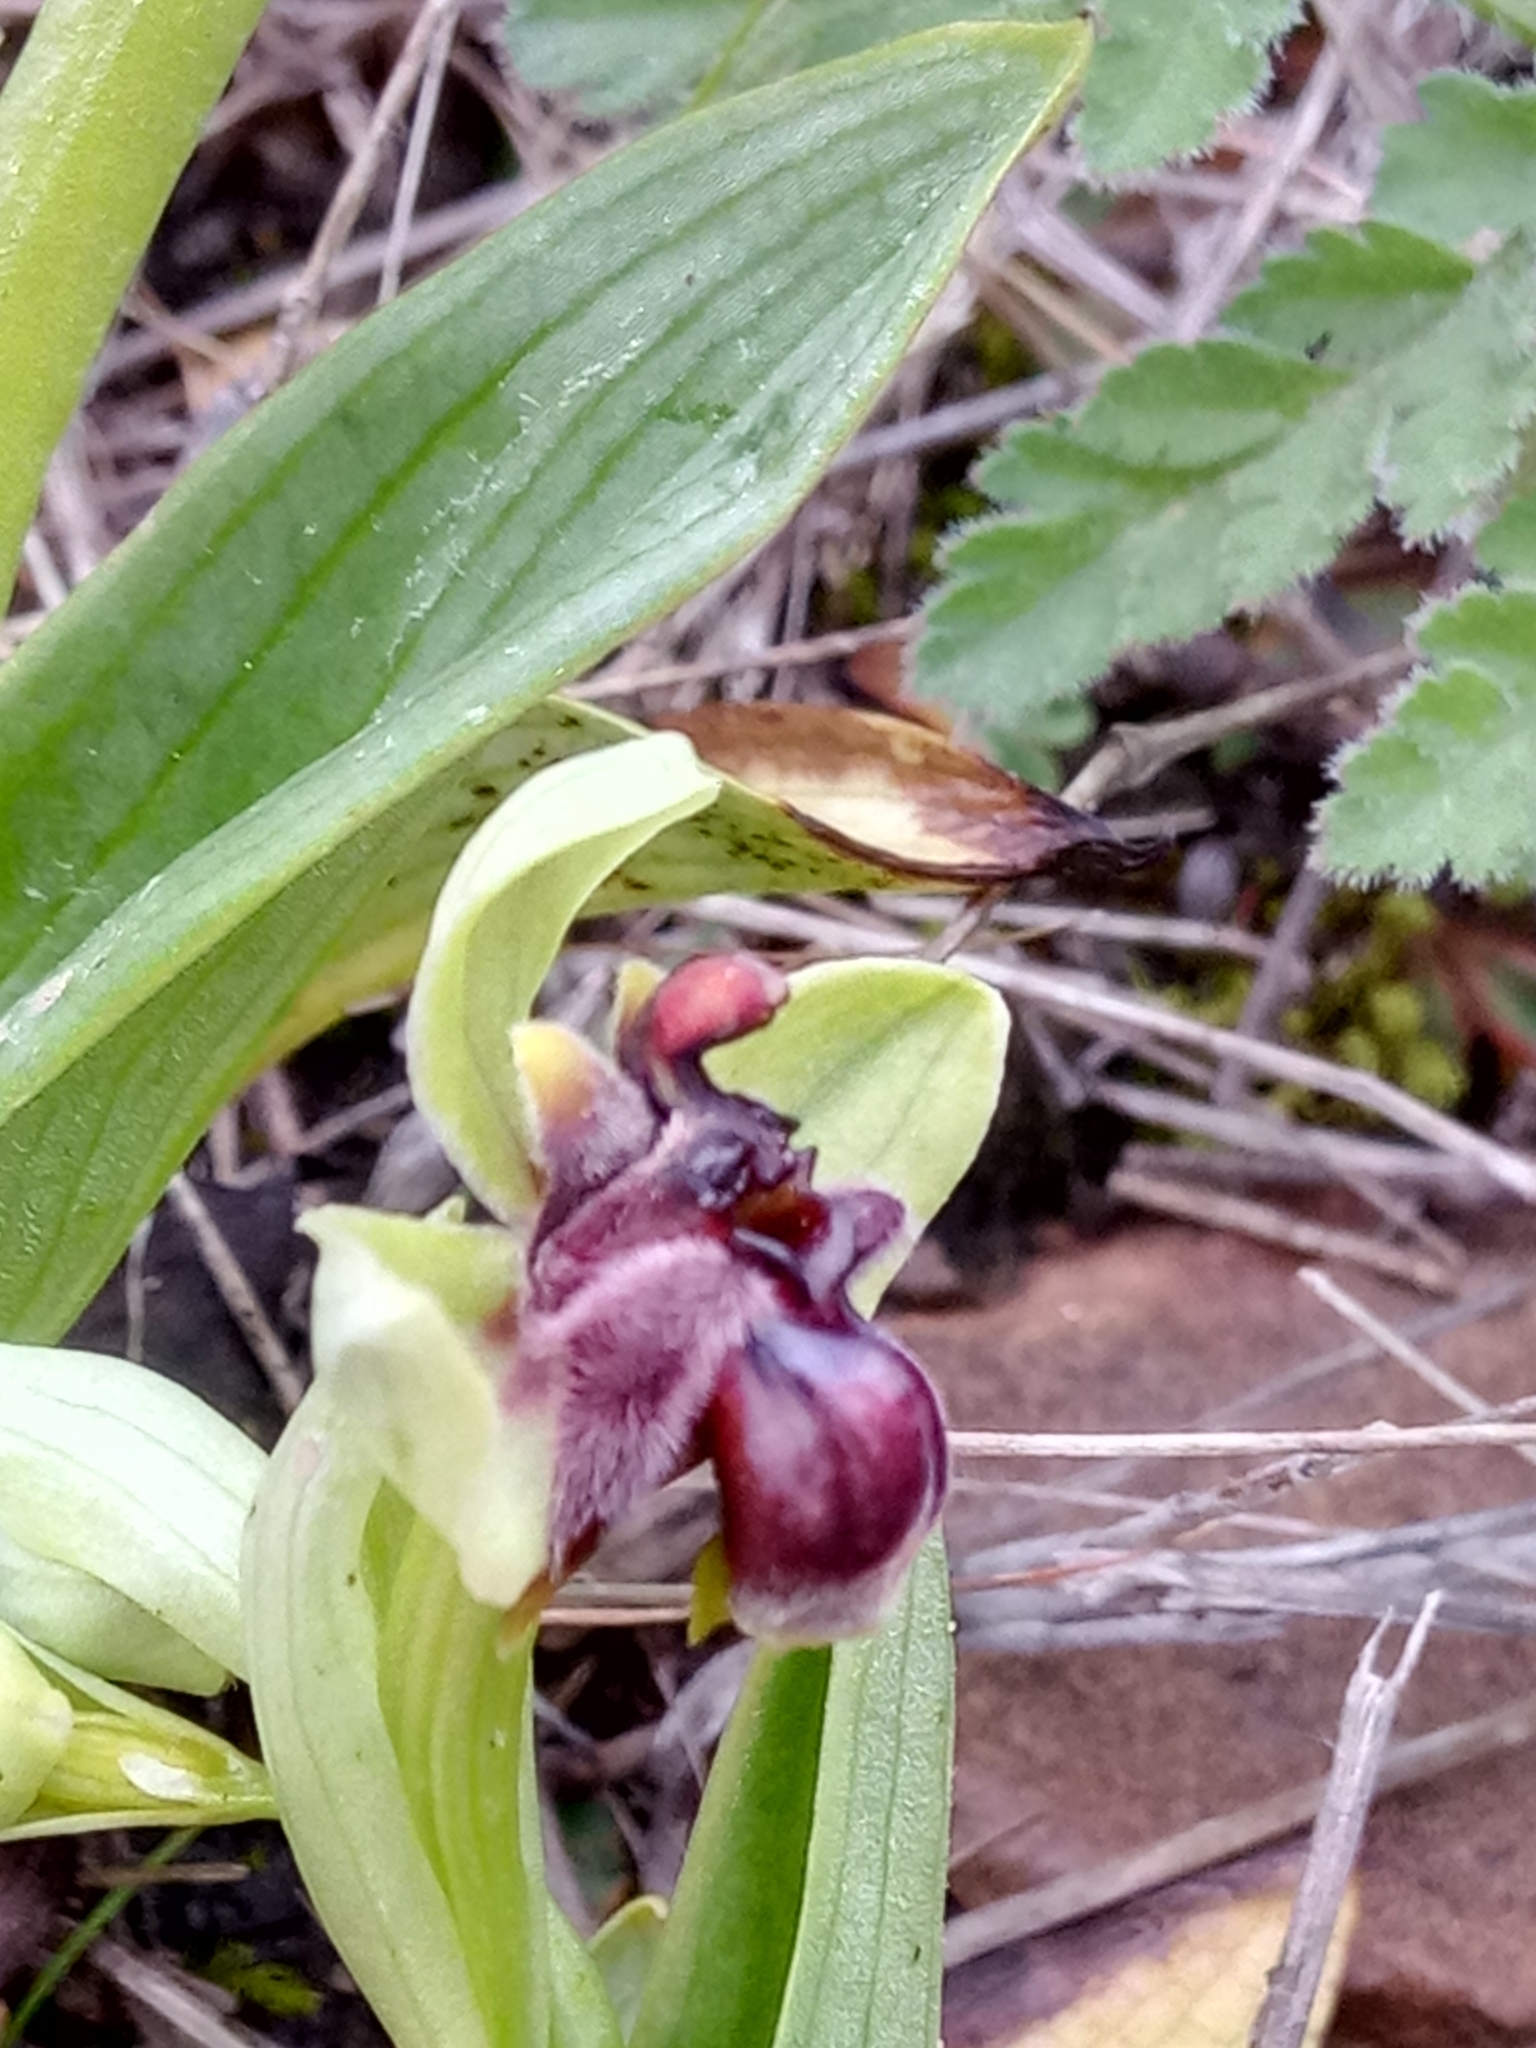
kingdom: Plantae
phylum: Tracheophyta
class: Liliopsida
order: Asparagales
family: Orchidaceae
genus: Ophrys
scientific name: Ophrys bombyliflora
